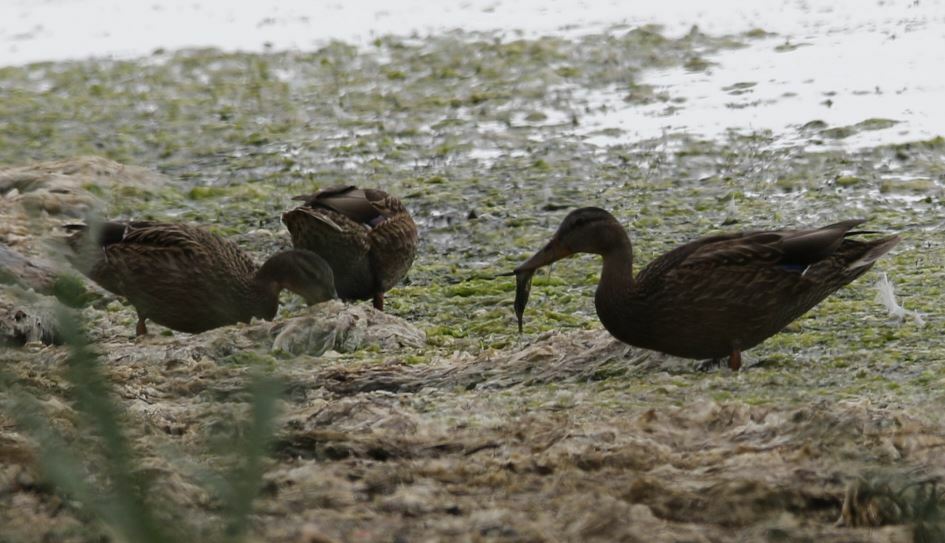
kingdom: Animalia
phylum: Chordata
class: Aves
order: Anseriformes
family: Anatidae
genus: Anas
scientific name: Anas platyrhynchos
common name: Mallard
